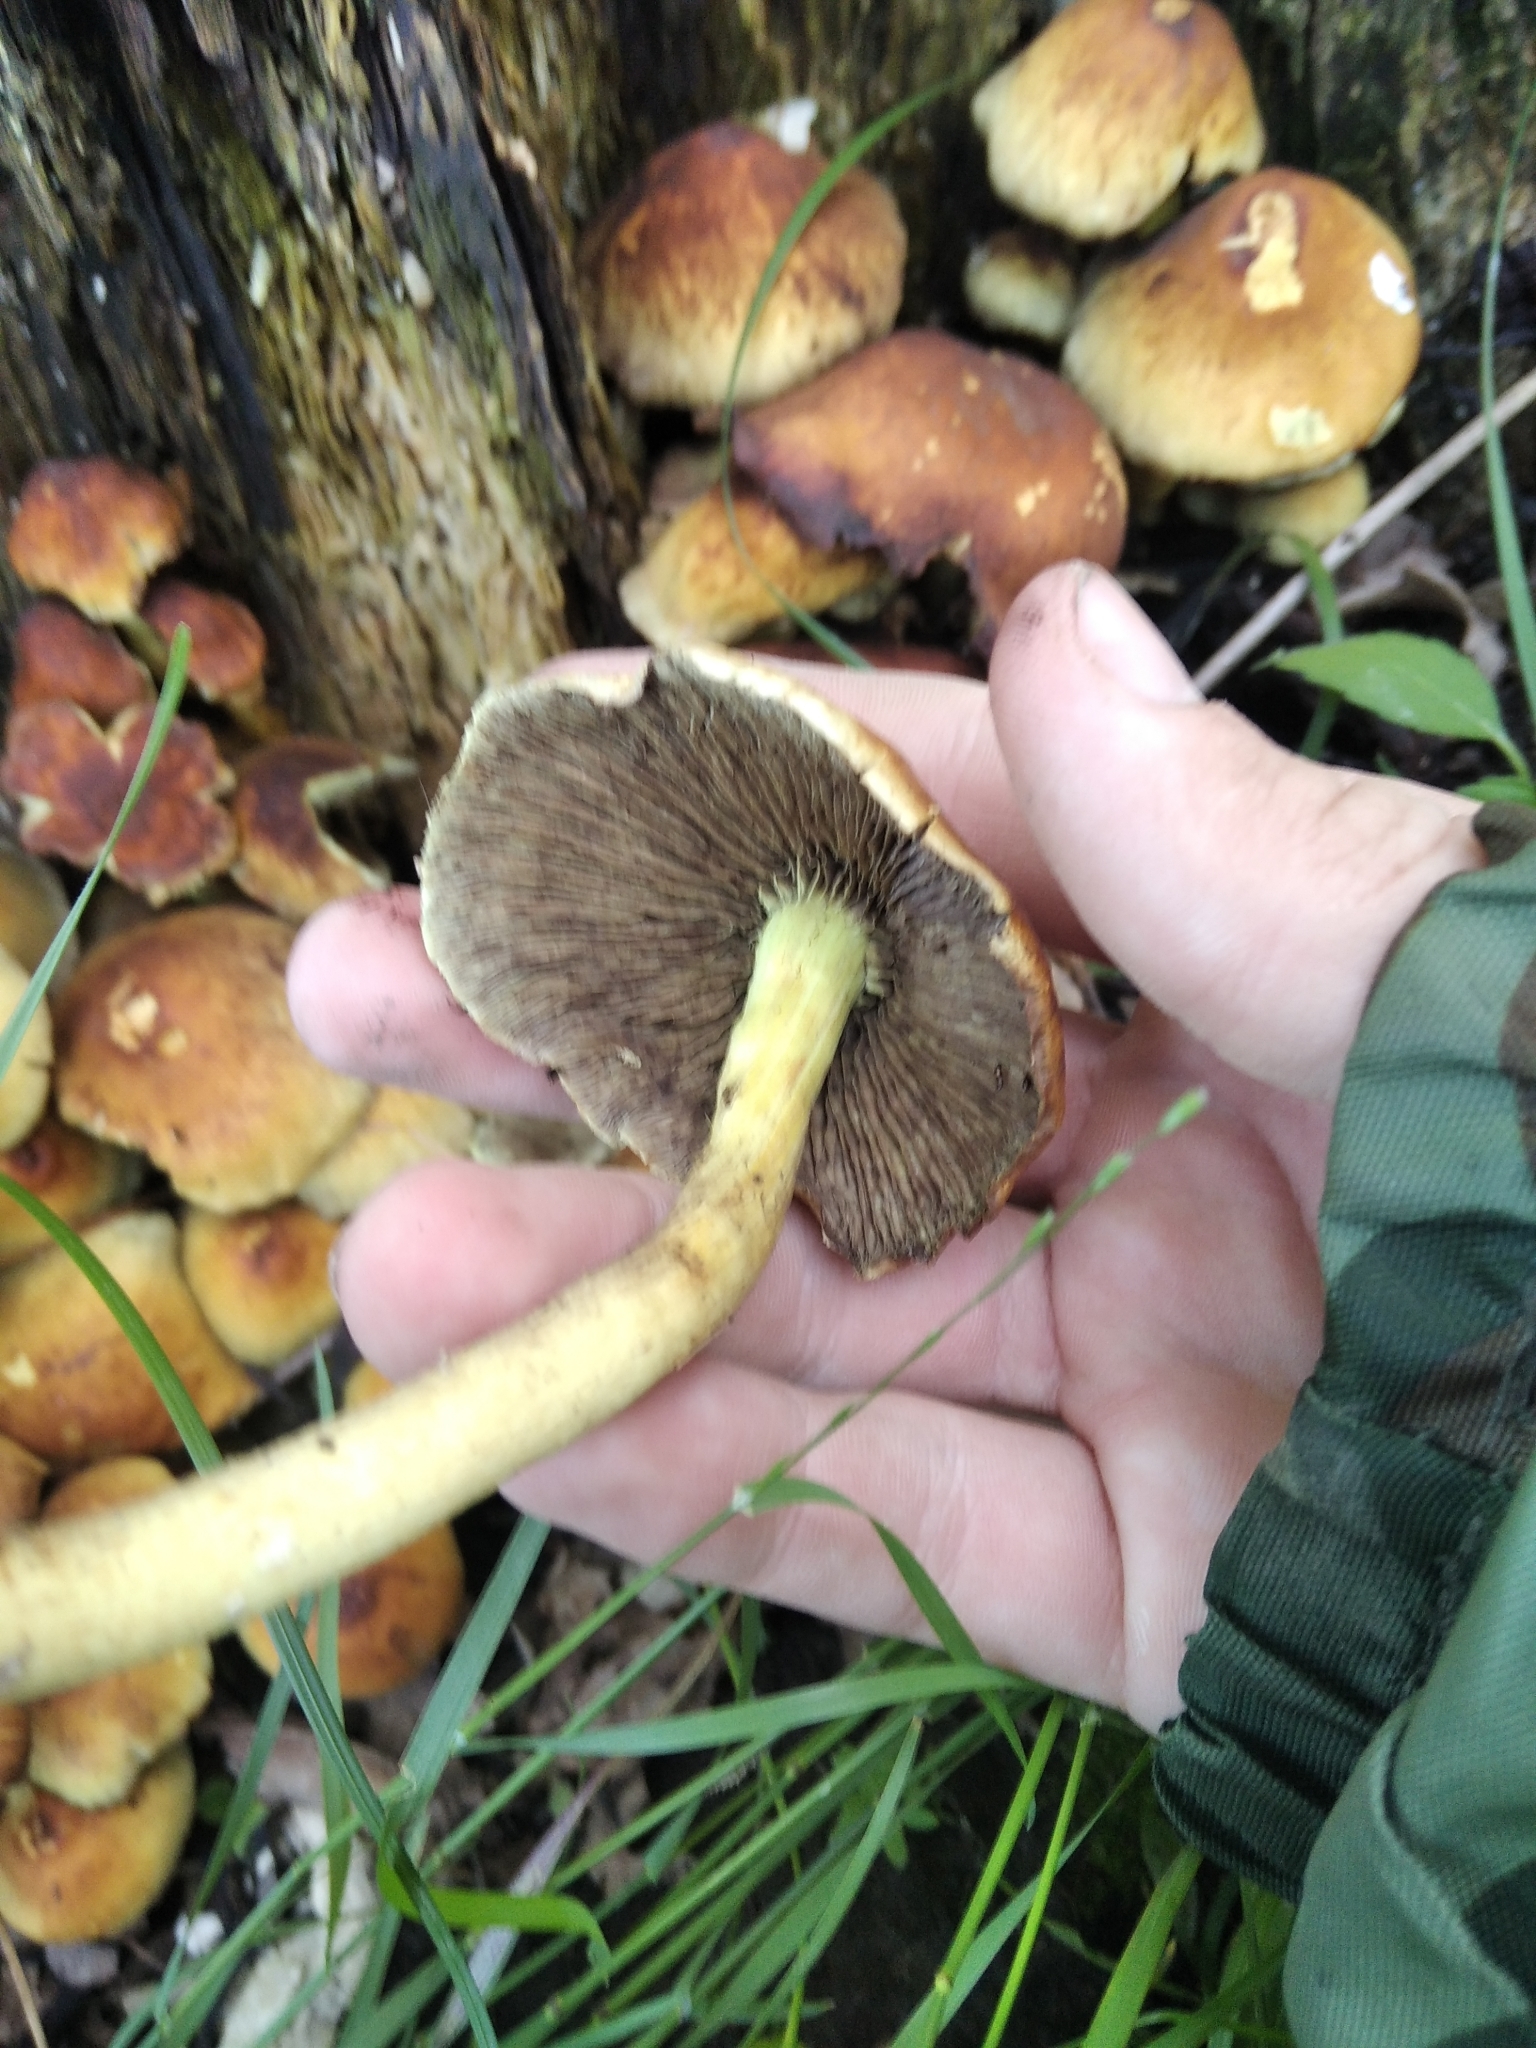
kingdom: Fungi
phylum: Basidiomycota
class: Agaricomycetes
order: Agaricales
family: Strophariaceae
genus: Hypholoma
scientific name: Hypholoma fasciculare
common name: Sulphur tuft
